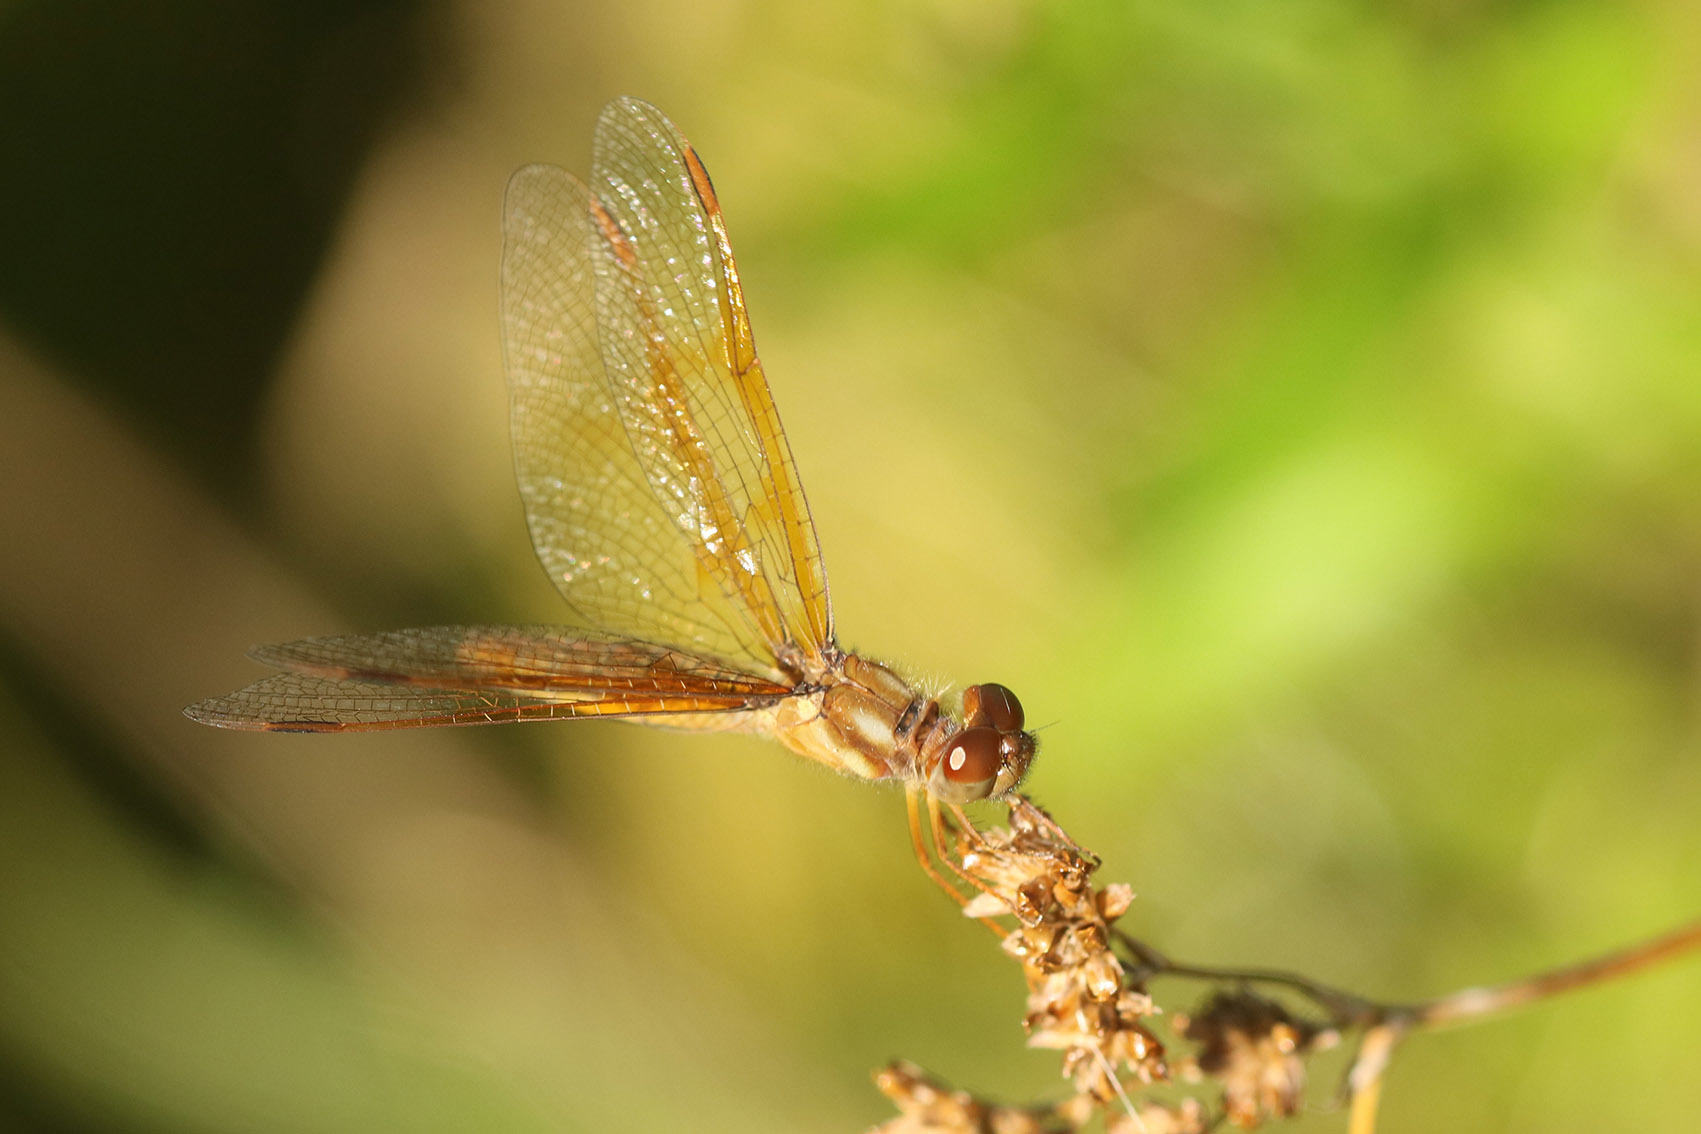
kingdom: Animalia
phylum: Arthropoda
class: Insecta
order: Odonata
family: Libellulidae
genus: Perithemis
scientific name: Perithemis tenera
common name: Eastern amberwing
